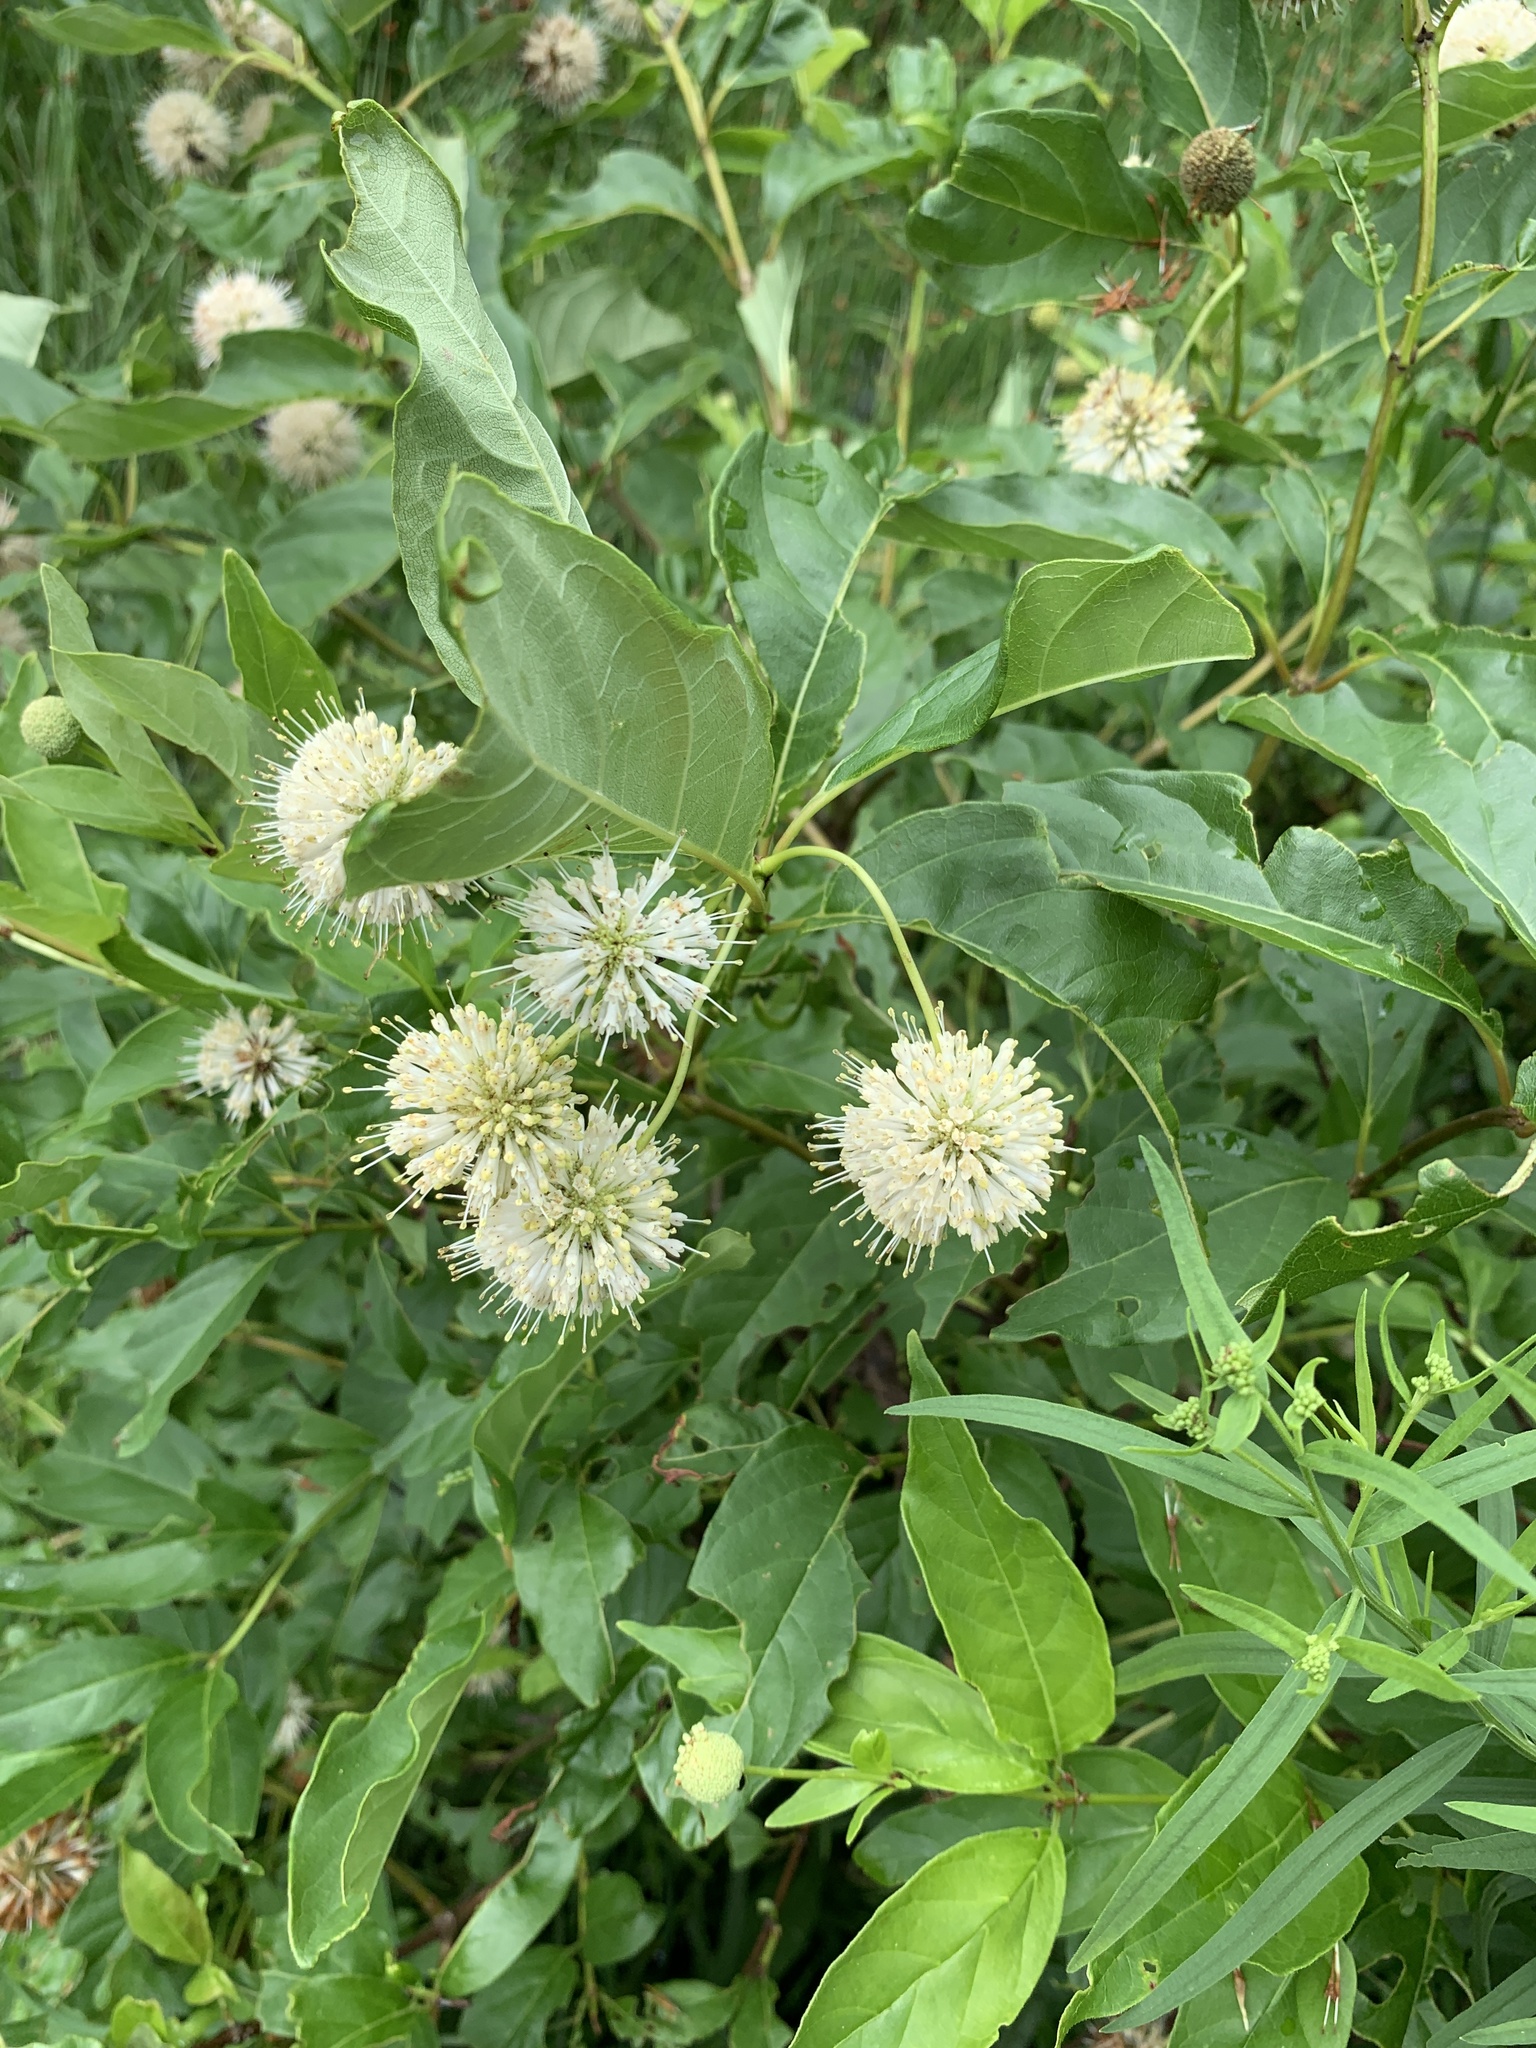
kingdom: Plantae
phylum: Tracheophyta
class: Magnoliopsida
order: Gentianales
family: Rubiaceae
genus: Cephalanthus
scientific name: Cephalanthus occidentalis
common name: Button-willow
